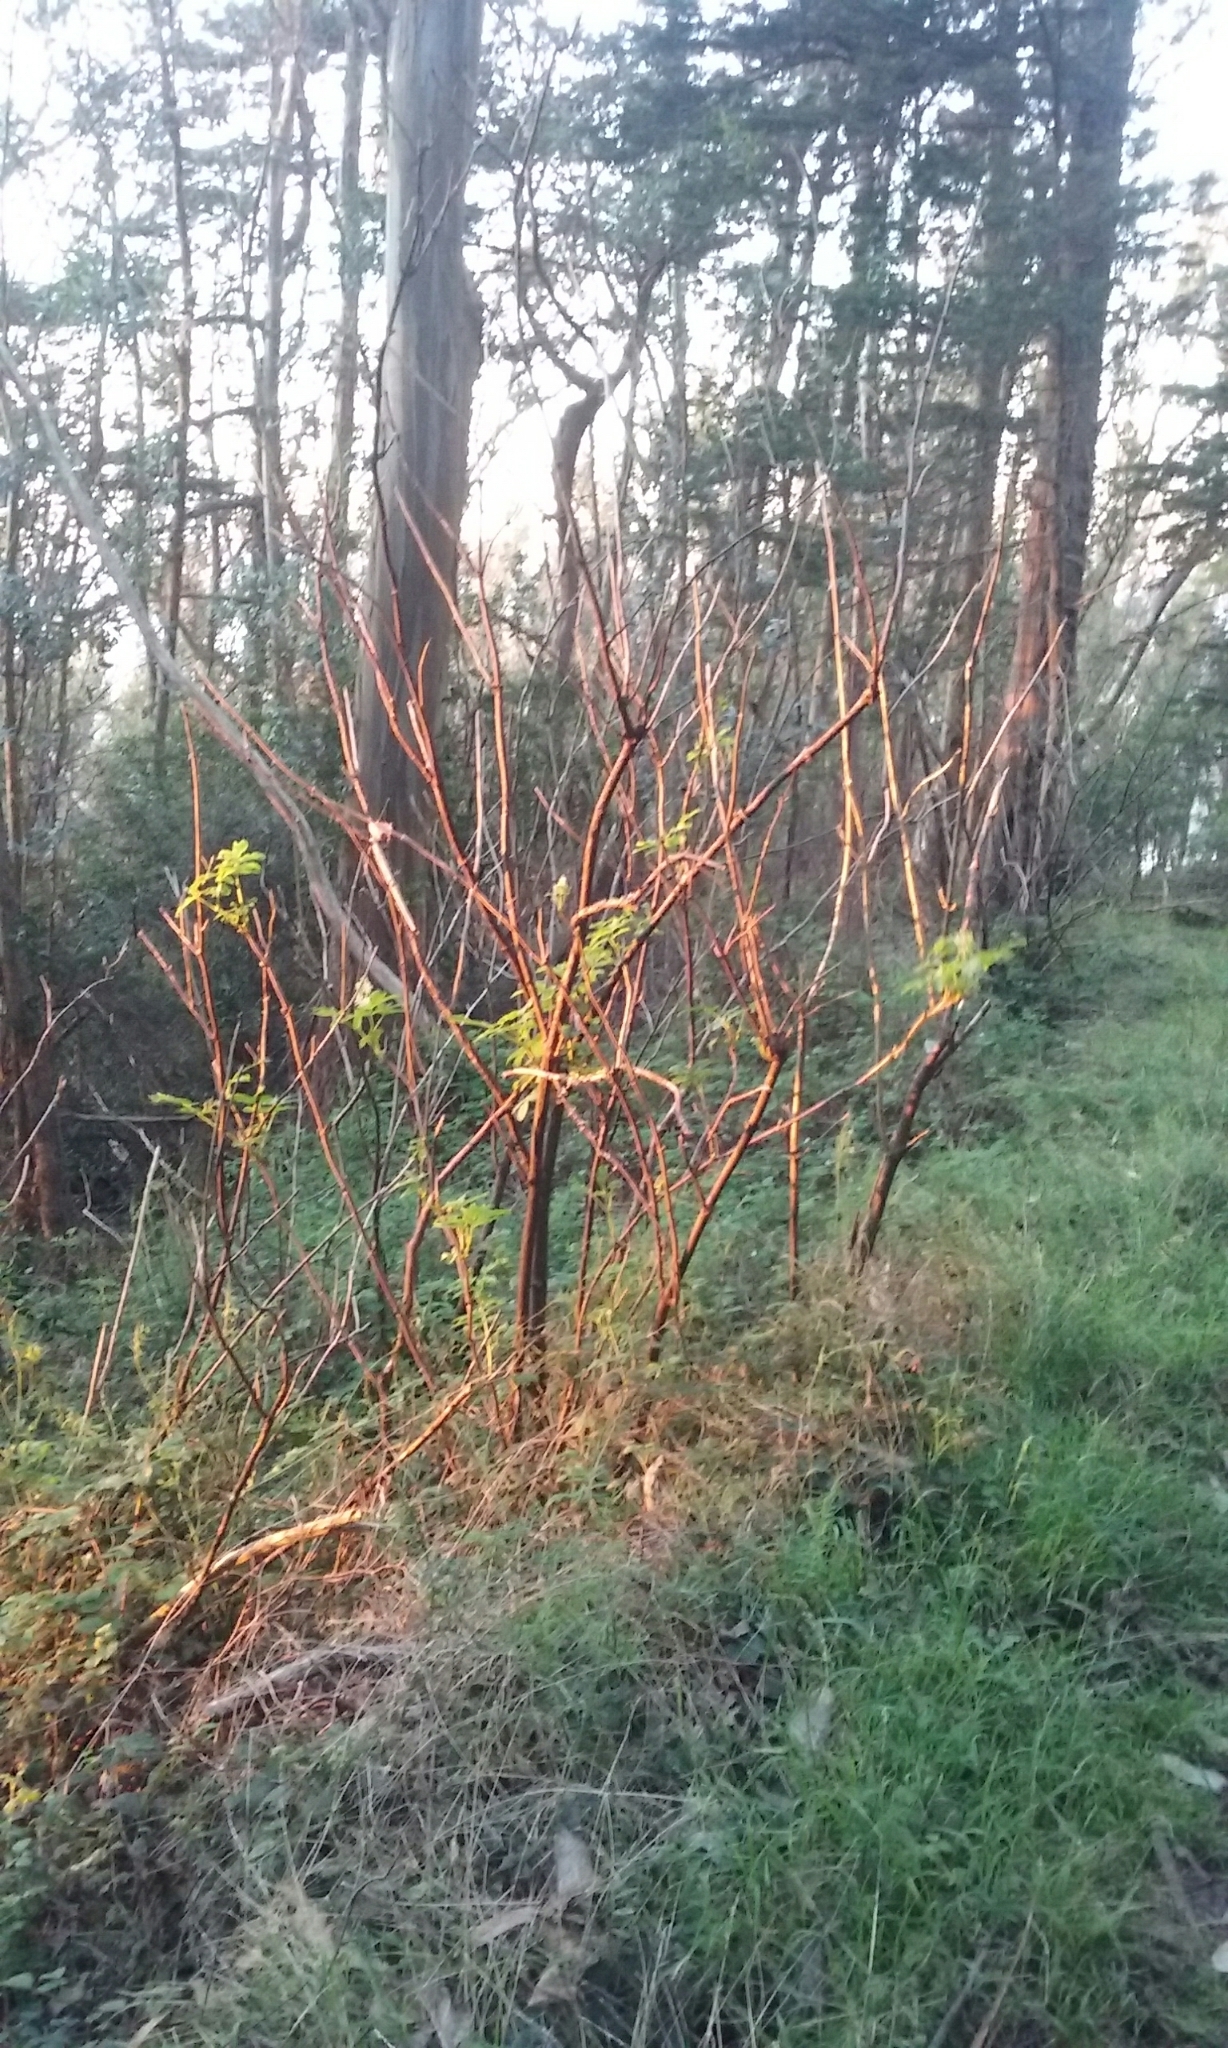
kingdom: Plantae
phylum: Tracheophyta
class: Magnoliopsida
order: Dipsacales
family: Viburnaceae
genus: Sambucus
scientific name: Sambucus racemosa
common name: Red-berried elder
